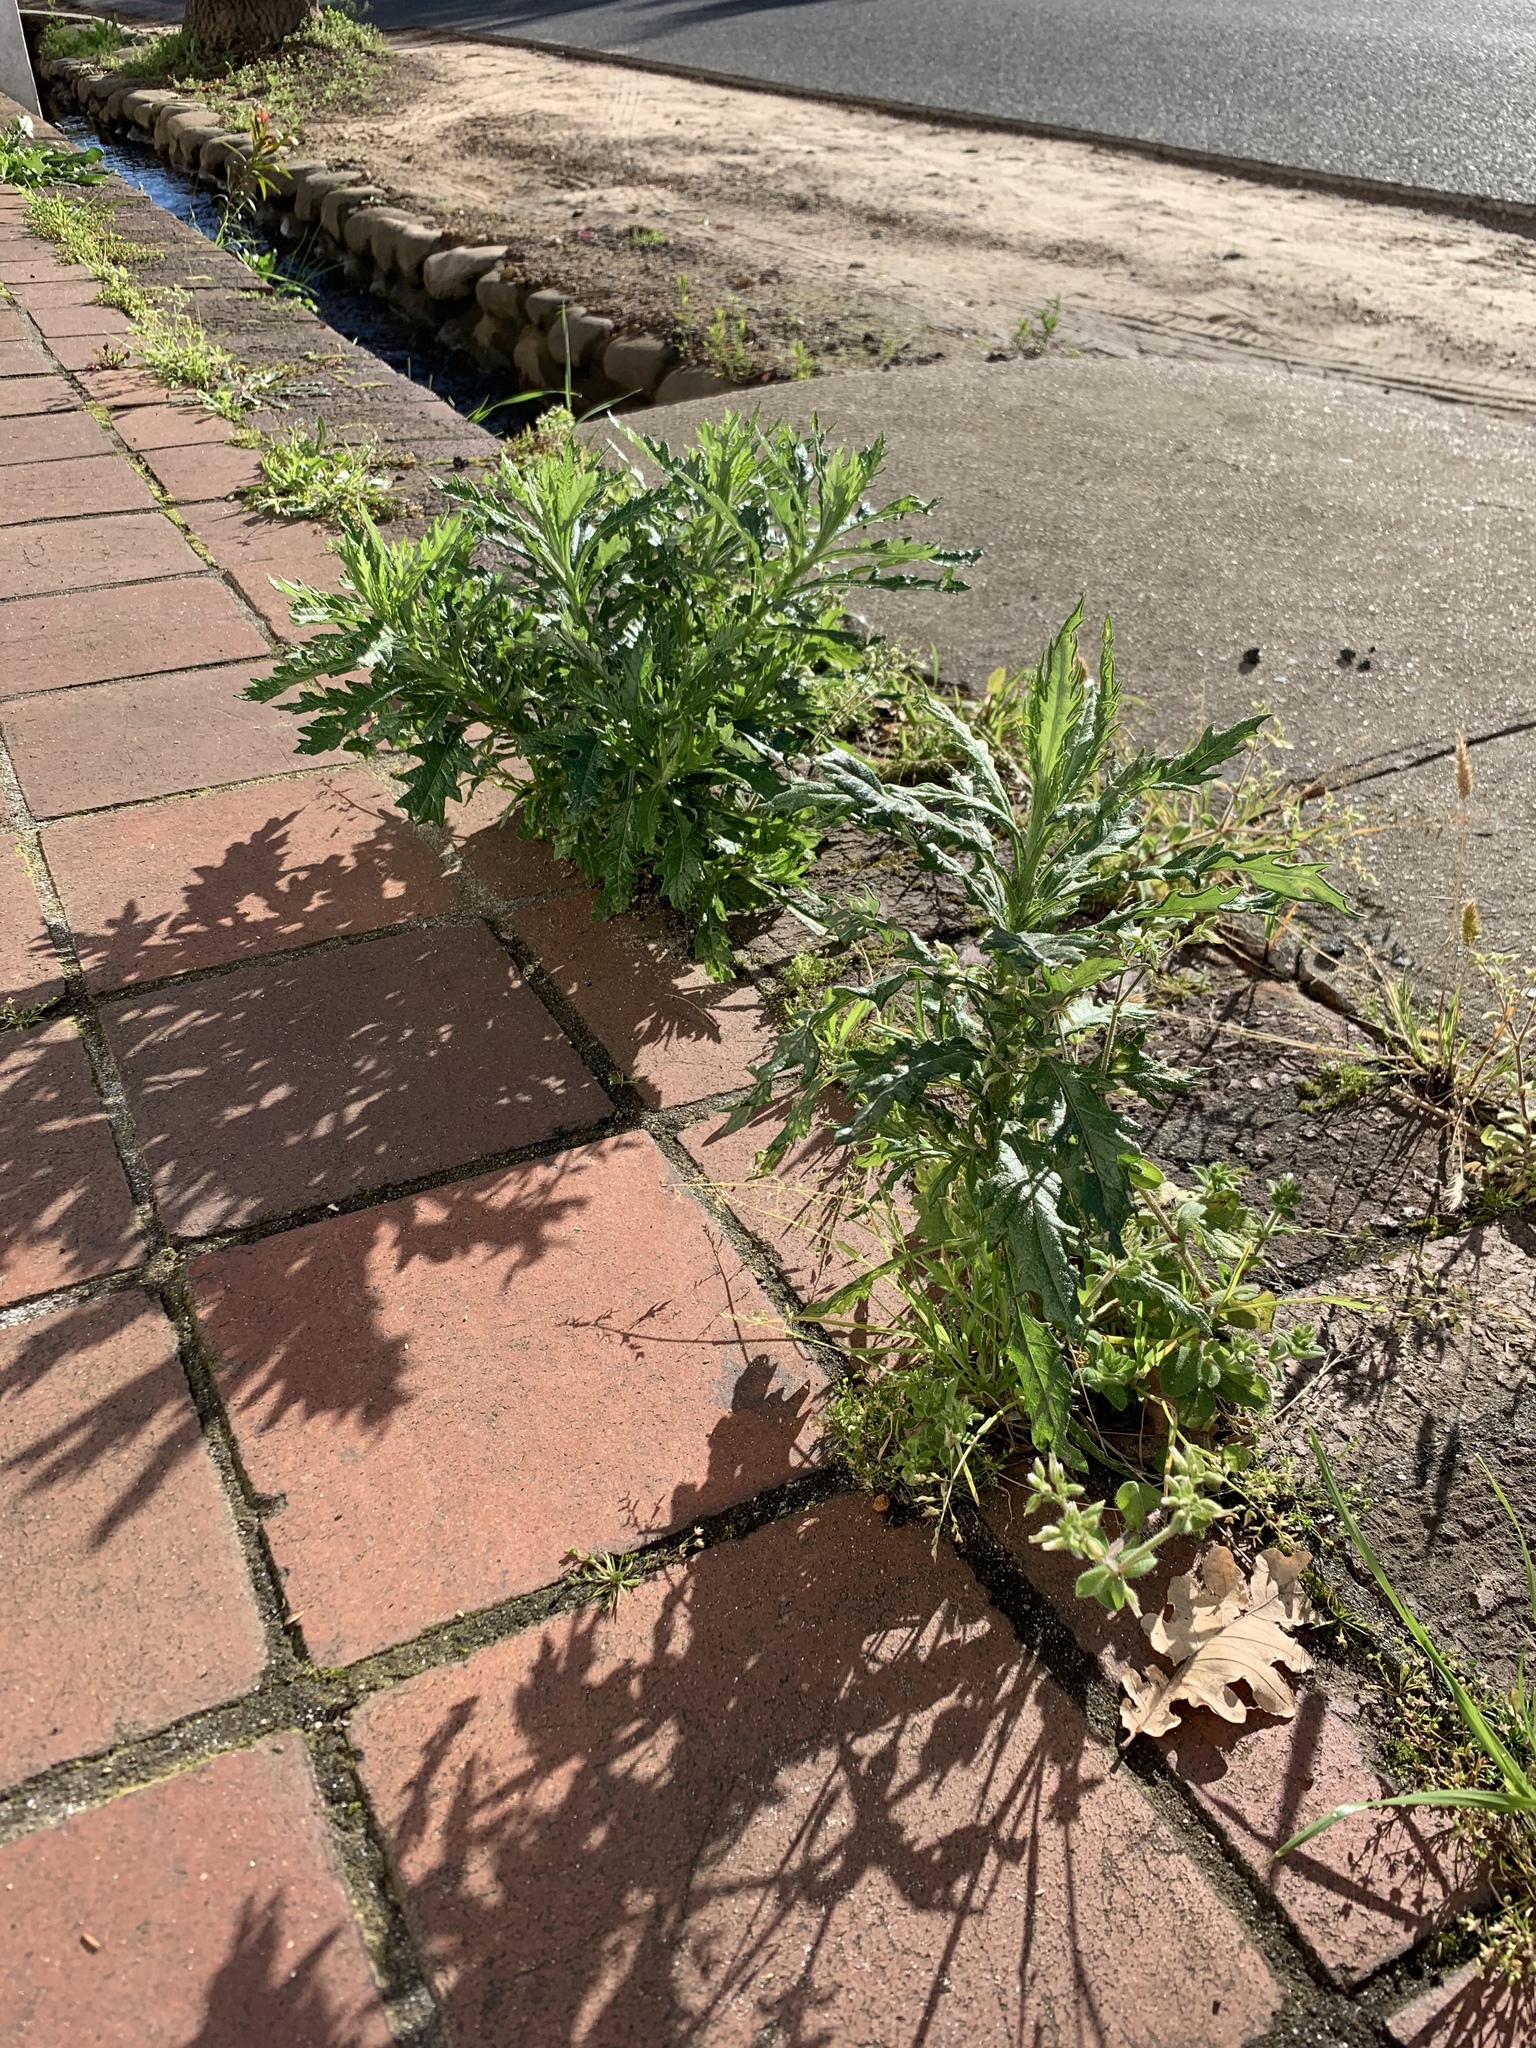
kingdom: Plantae
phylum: Tracheophyta
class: Magnoliopsida
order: Asterales
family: Asteraceae
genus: Senecio
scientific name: Senecio pterophorus
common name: Shoddy ragwort
